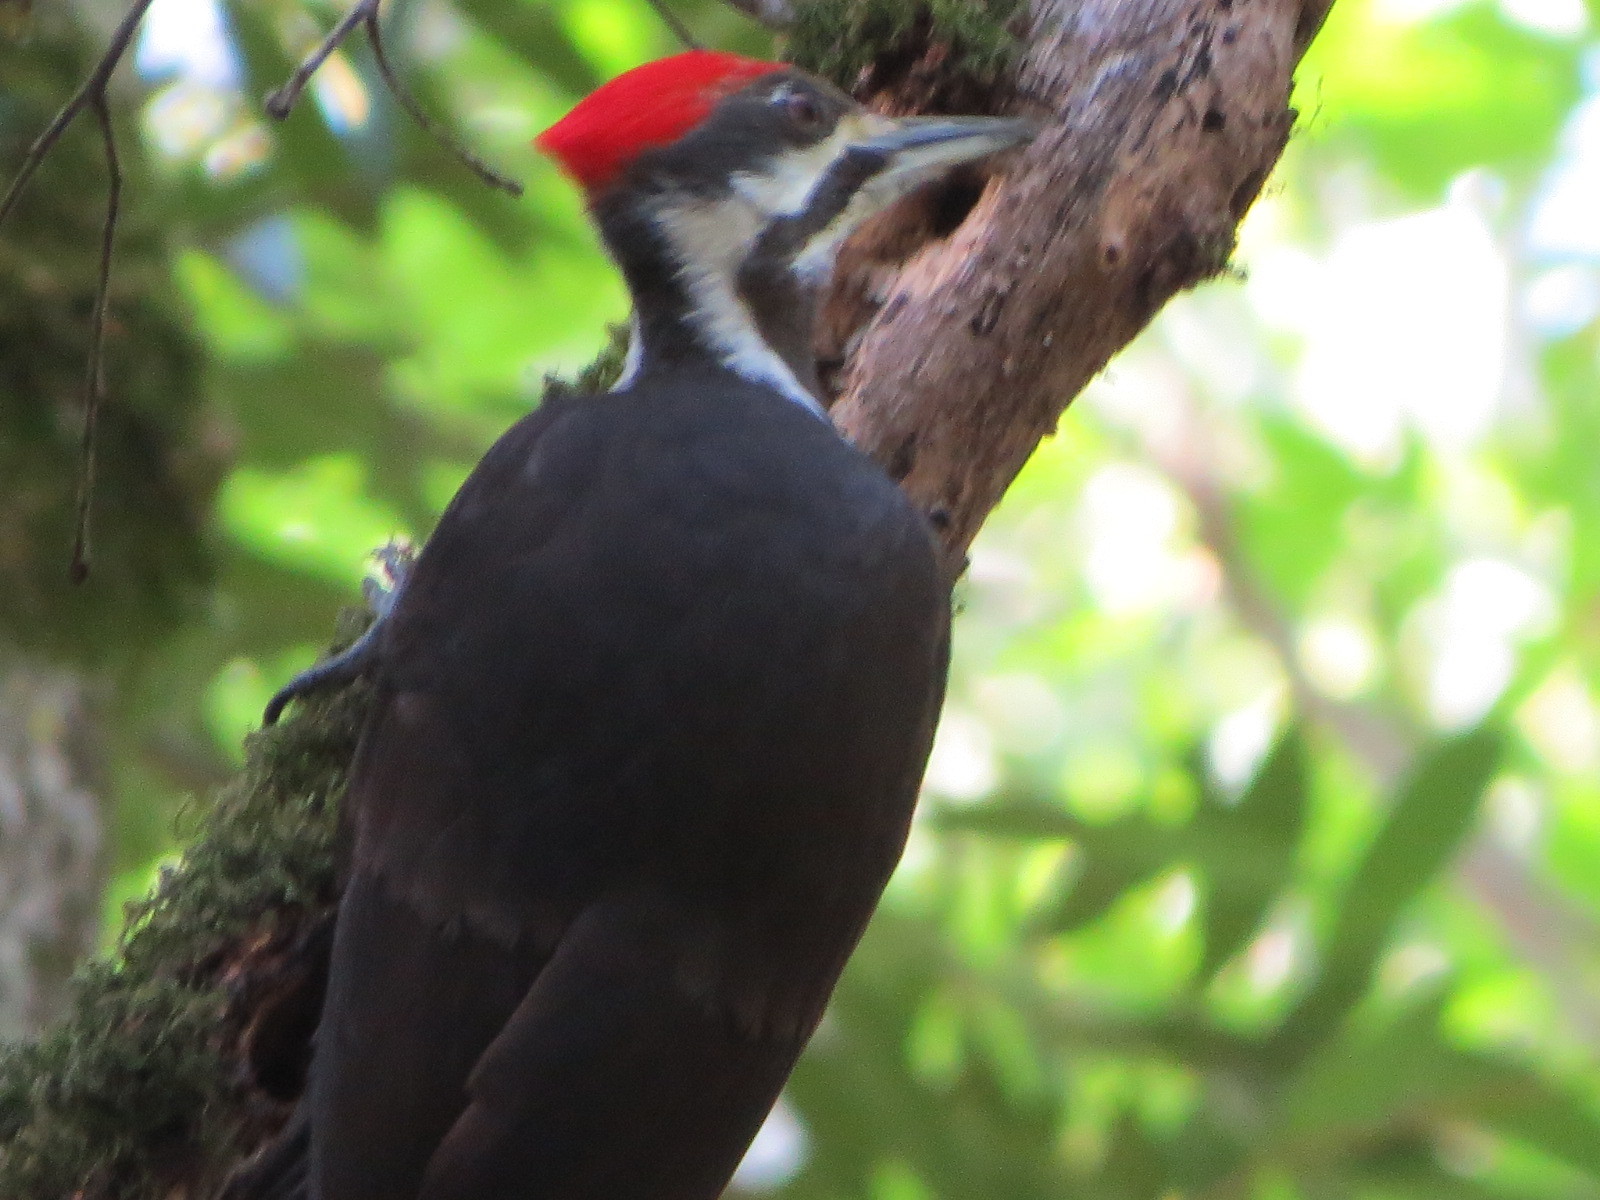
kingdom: Animalia
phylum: Chordata
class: Aves
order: Piciformes
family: Picidae
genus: Dryocopus
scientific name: Dryocopus pileatus
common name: Pileated woodpecker
